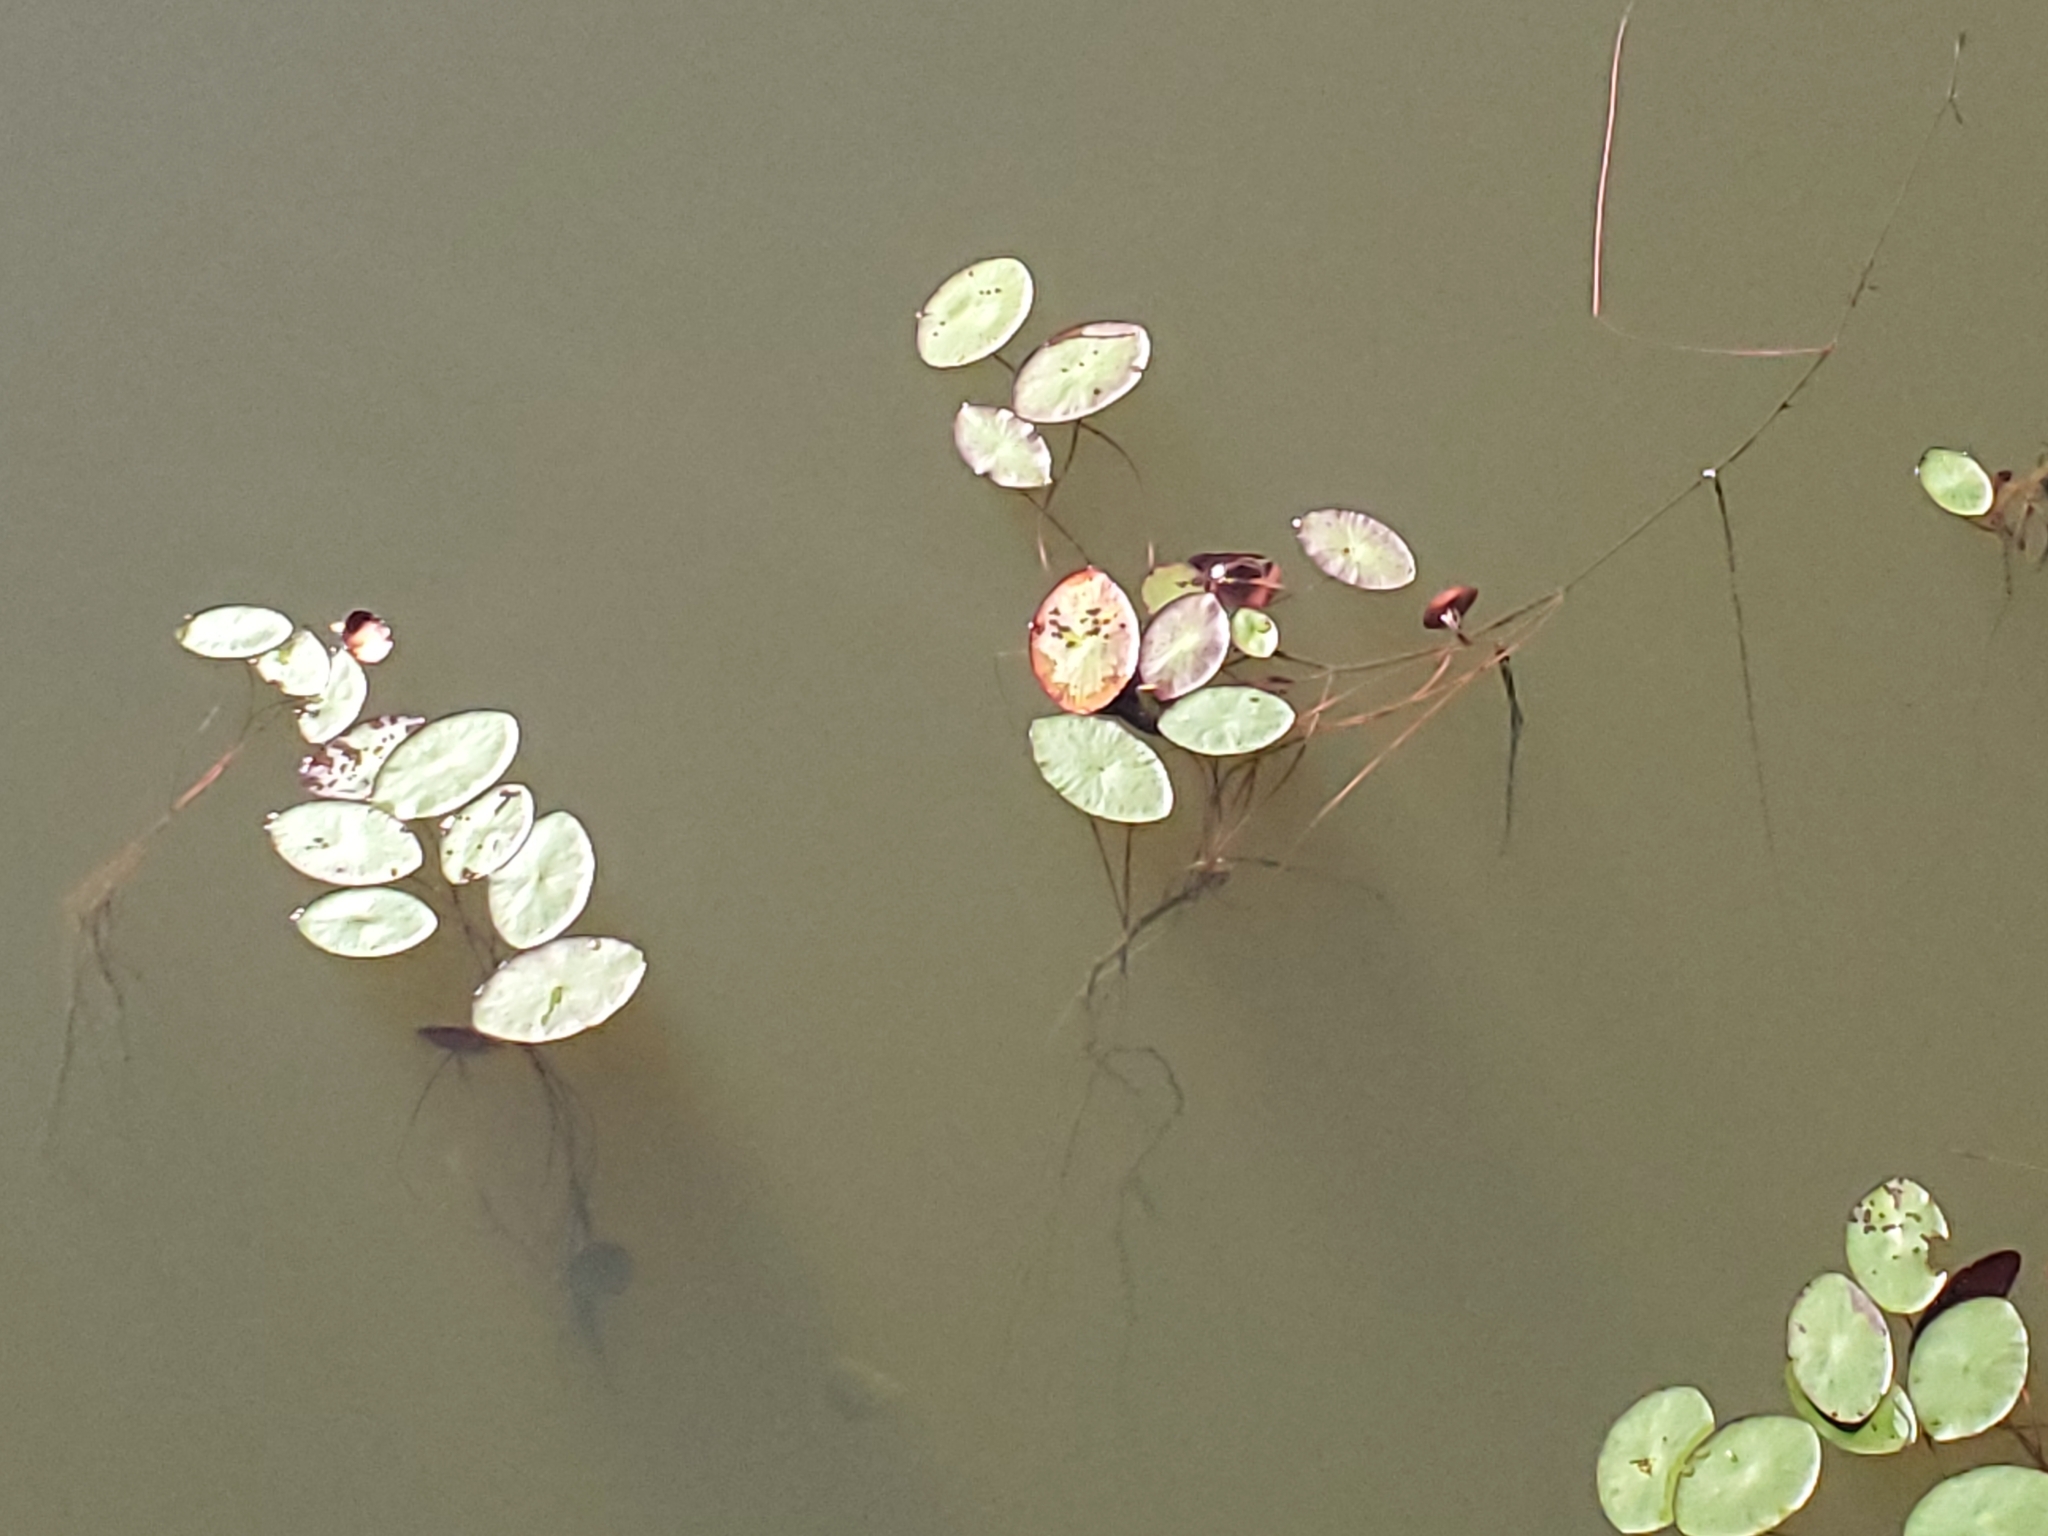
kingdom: Plantae
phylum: Tracheophyta
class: Magnoliopsida
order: Nymphaeales
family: Cabombaceae
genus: Brasenia
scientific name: Brasenia schreberi
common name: Water-shield
